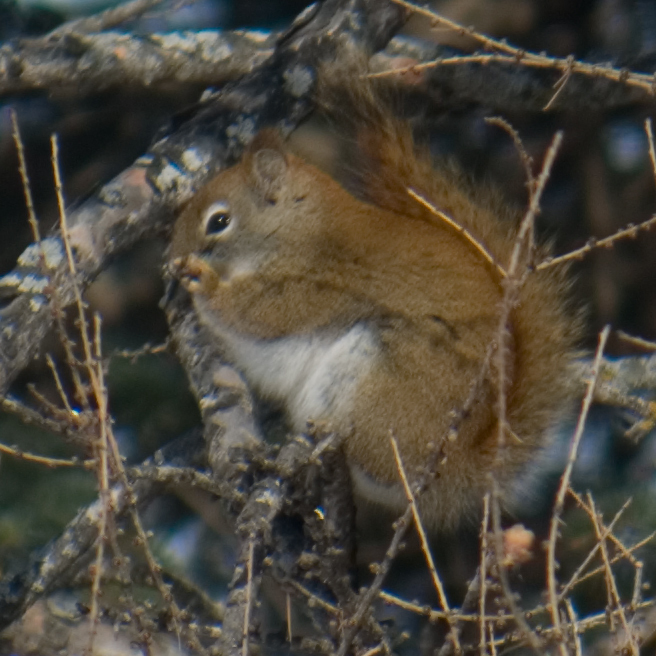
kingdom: Animalia
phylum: Chordata
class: Mammalia
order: Rodentia
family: Sciuridae
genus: Tamiasciurus
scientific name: Tamiasciurus hudsonicus
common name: Red squirrel
